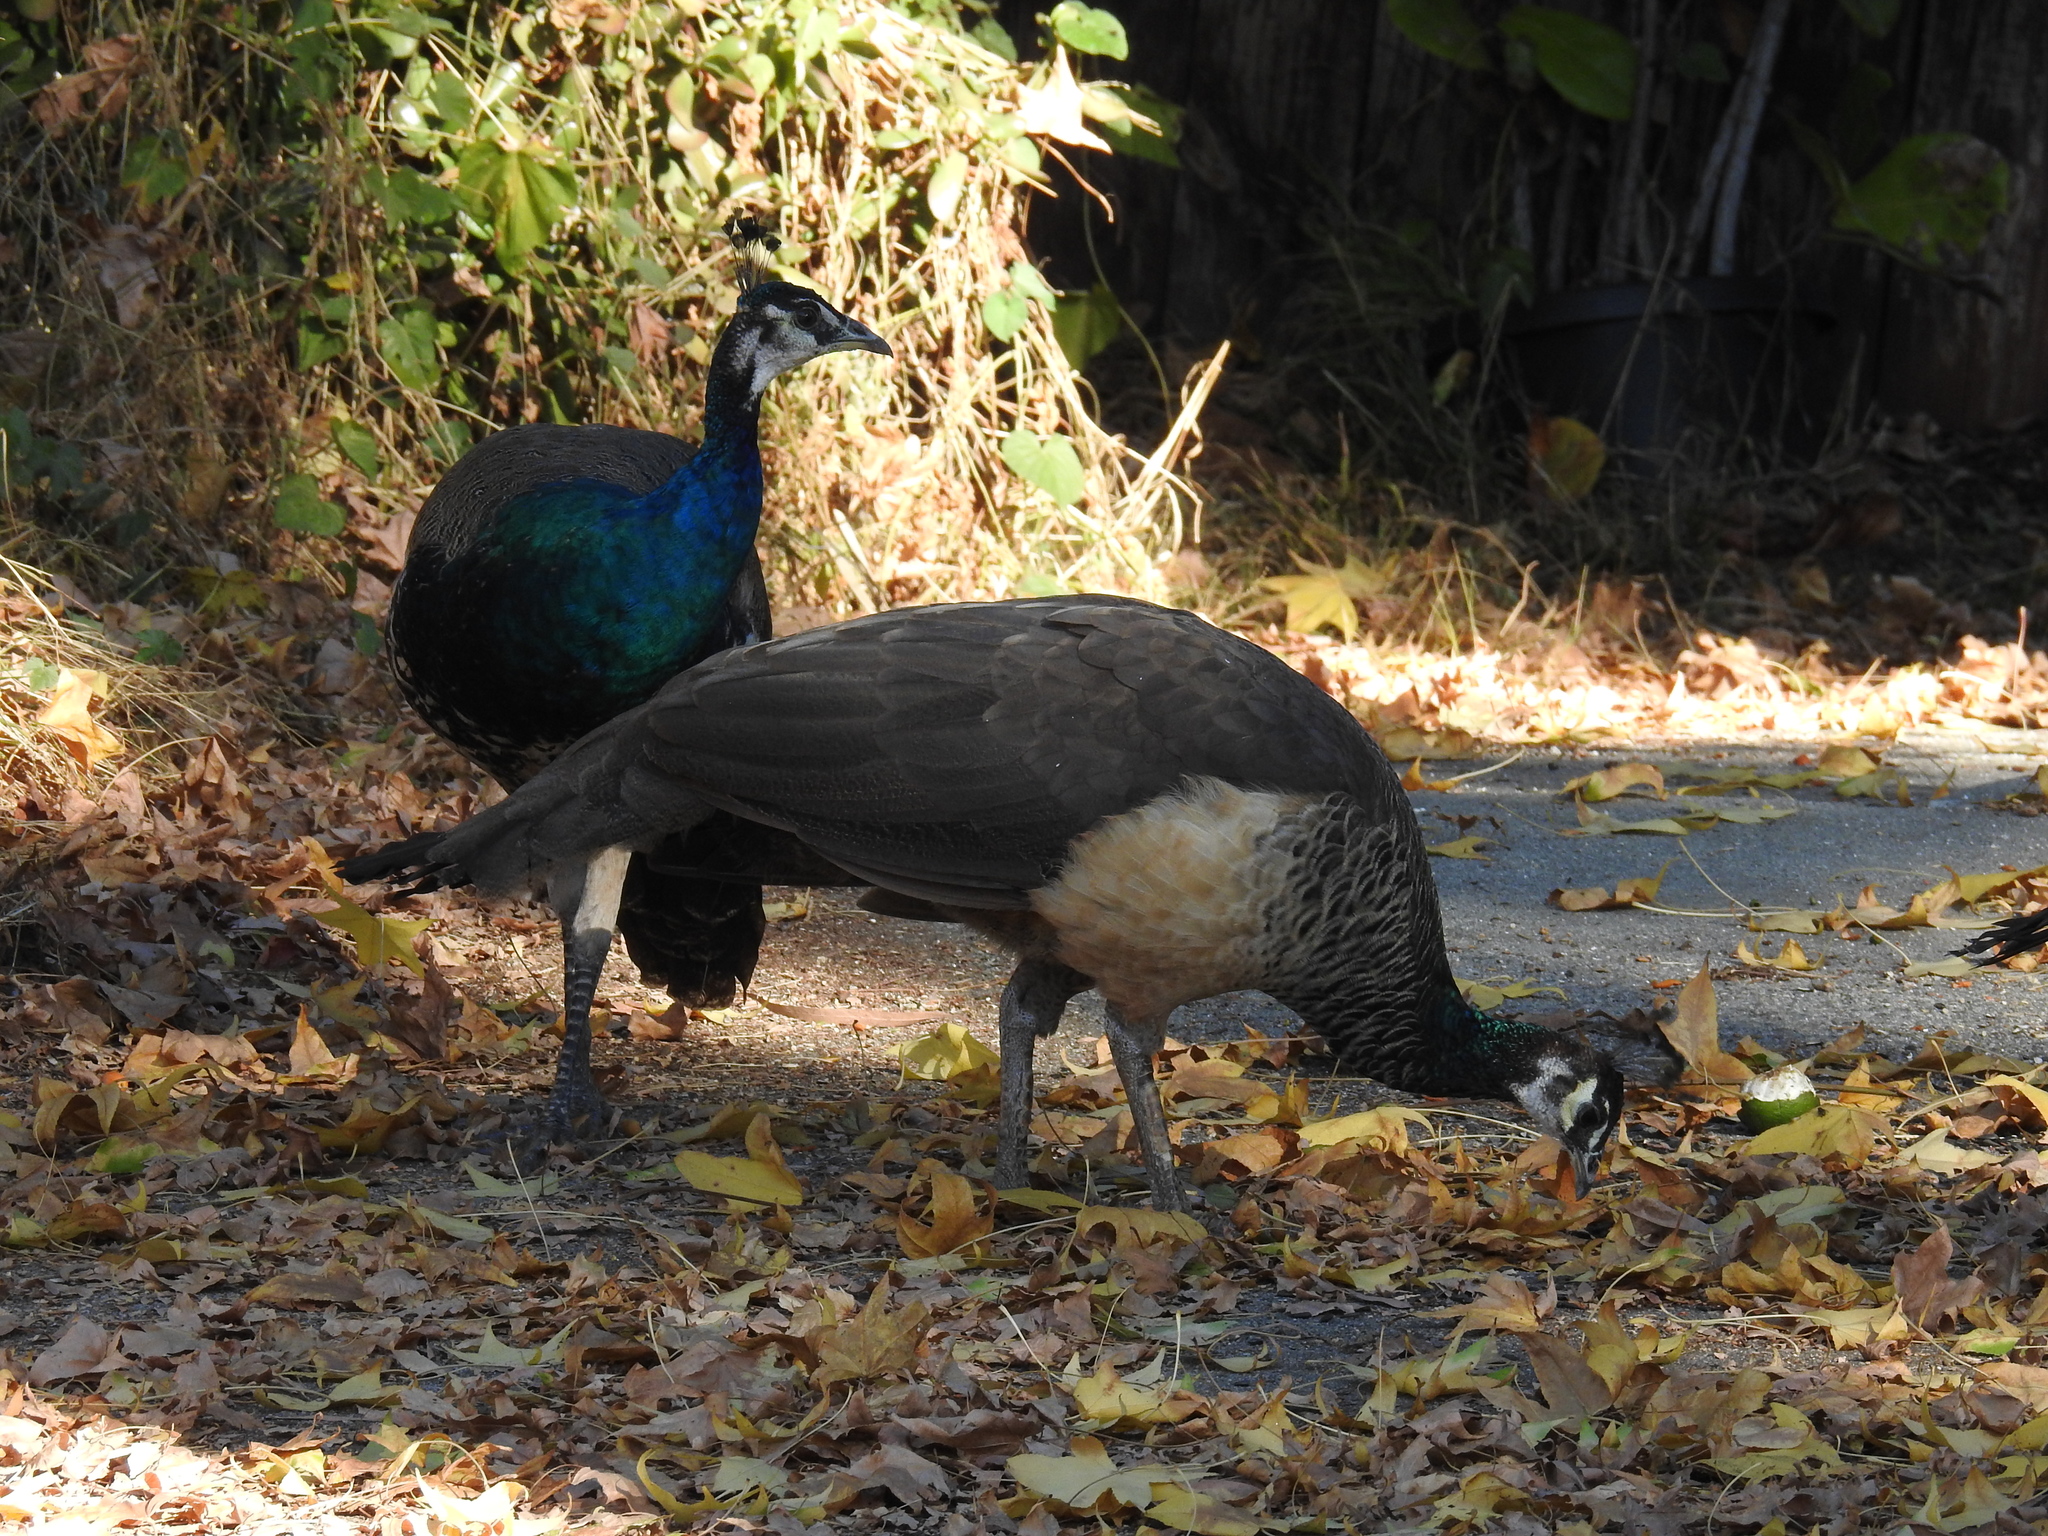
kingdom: Animalia
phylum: Chordata
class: Aves
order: Galliformes
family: Phasianidae
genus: Pavo
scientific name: Pavo cristatus
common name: Indian peafowl
